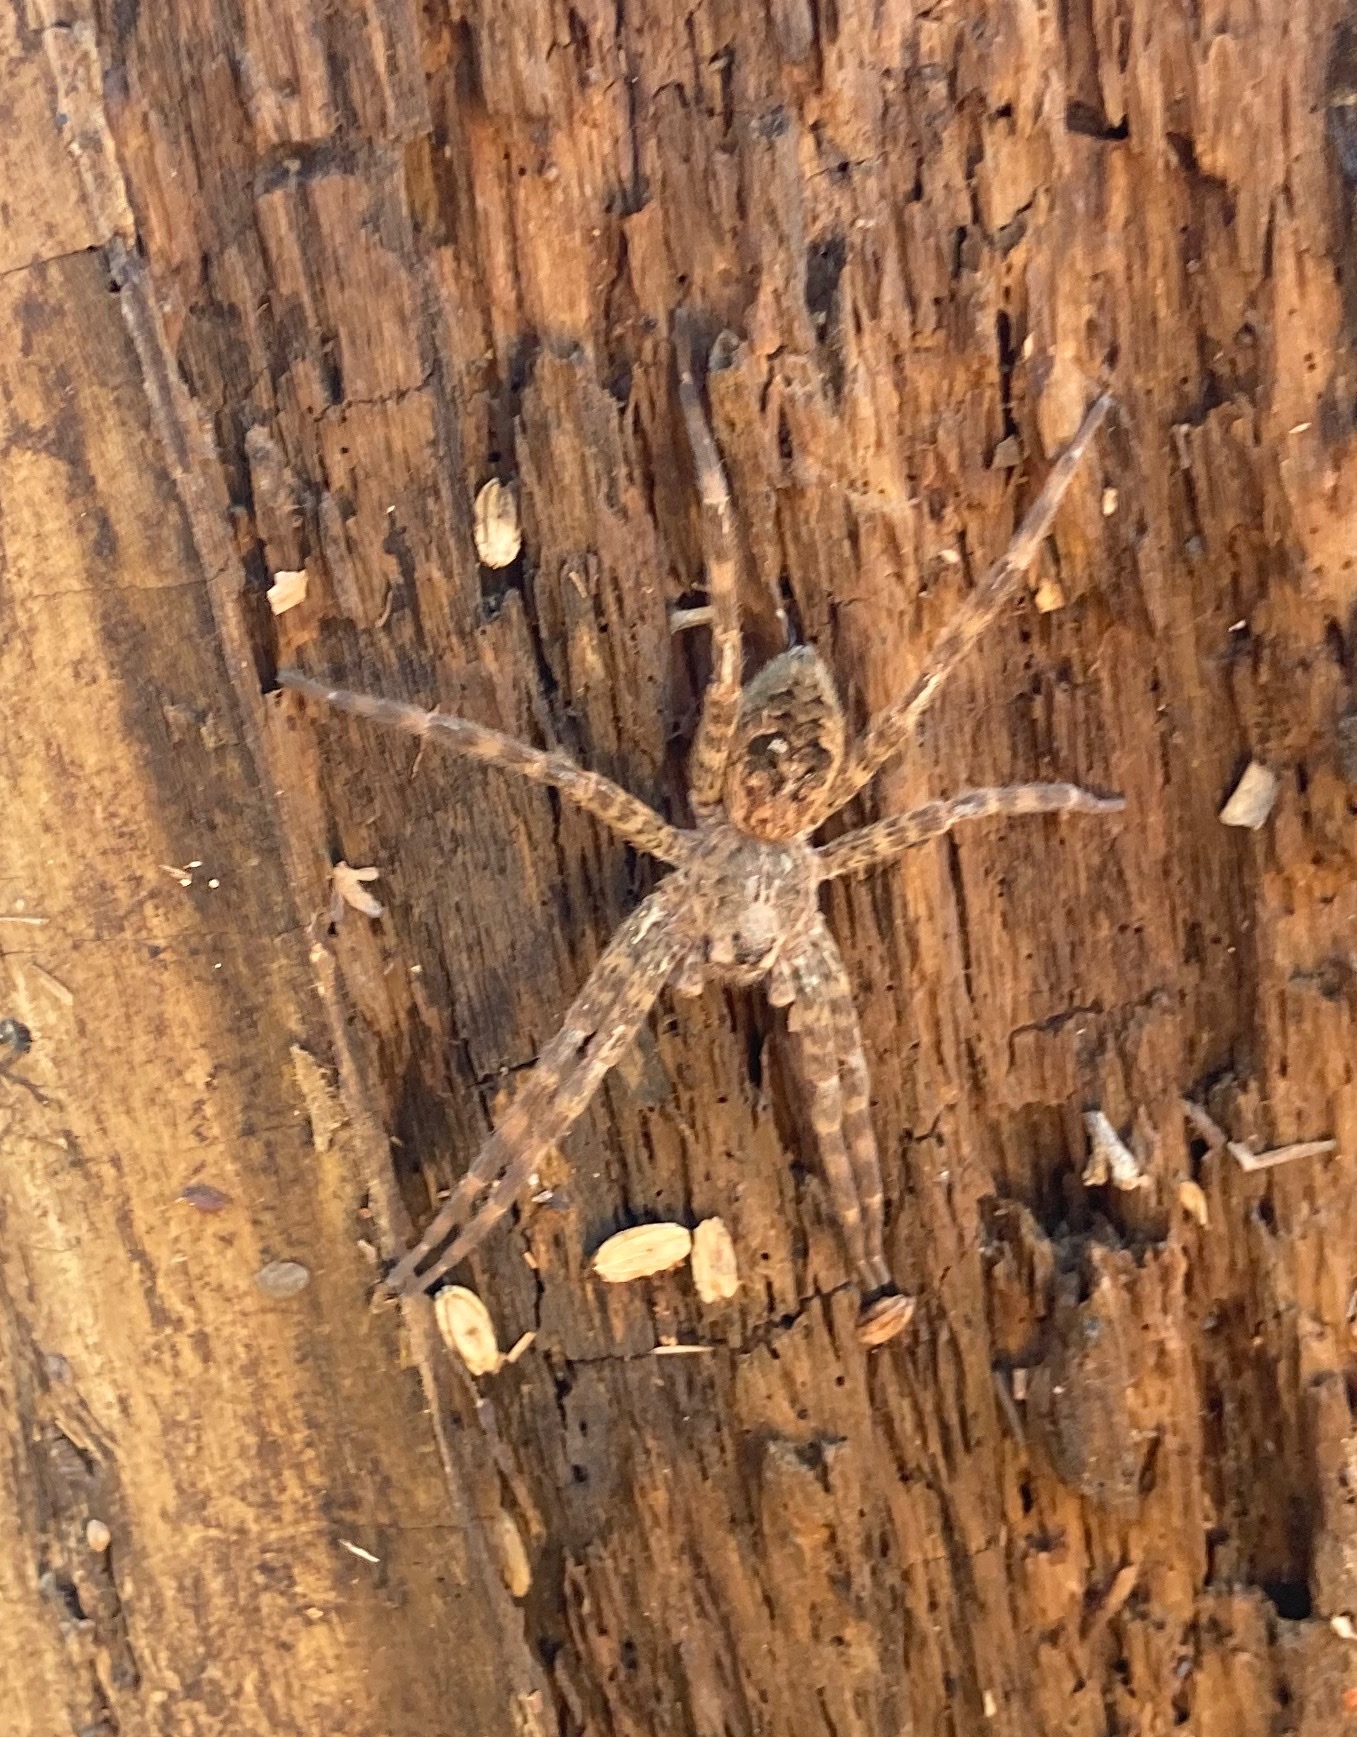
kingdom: Animalia
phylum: Arthropoda
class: Arachnida
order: Araneae
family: Pisauridae
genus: Dolomedes
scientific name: Dolomedes tenebrosus
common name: Dark fishing spider
